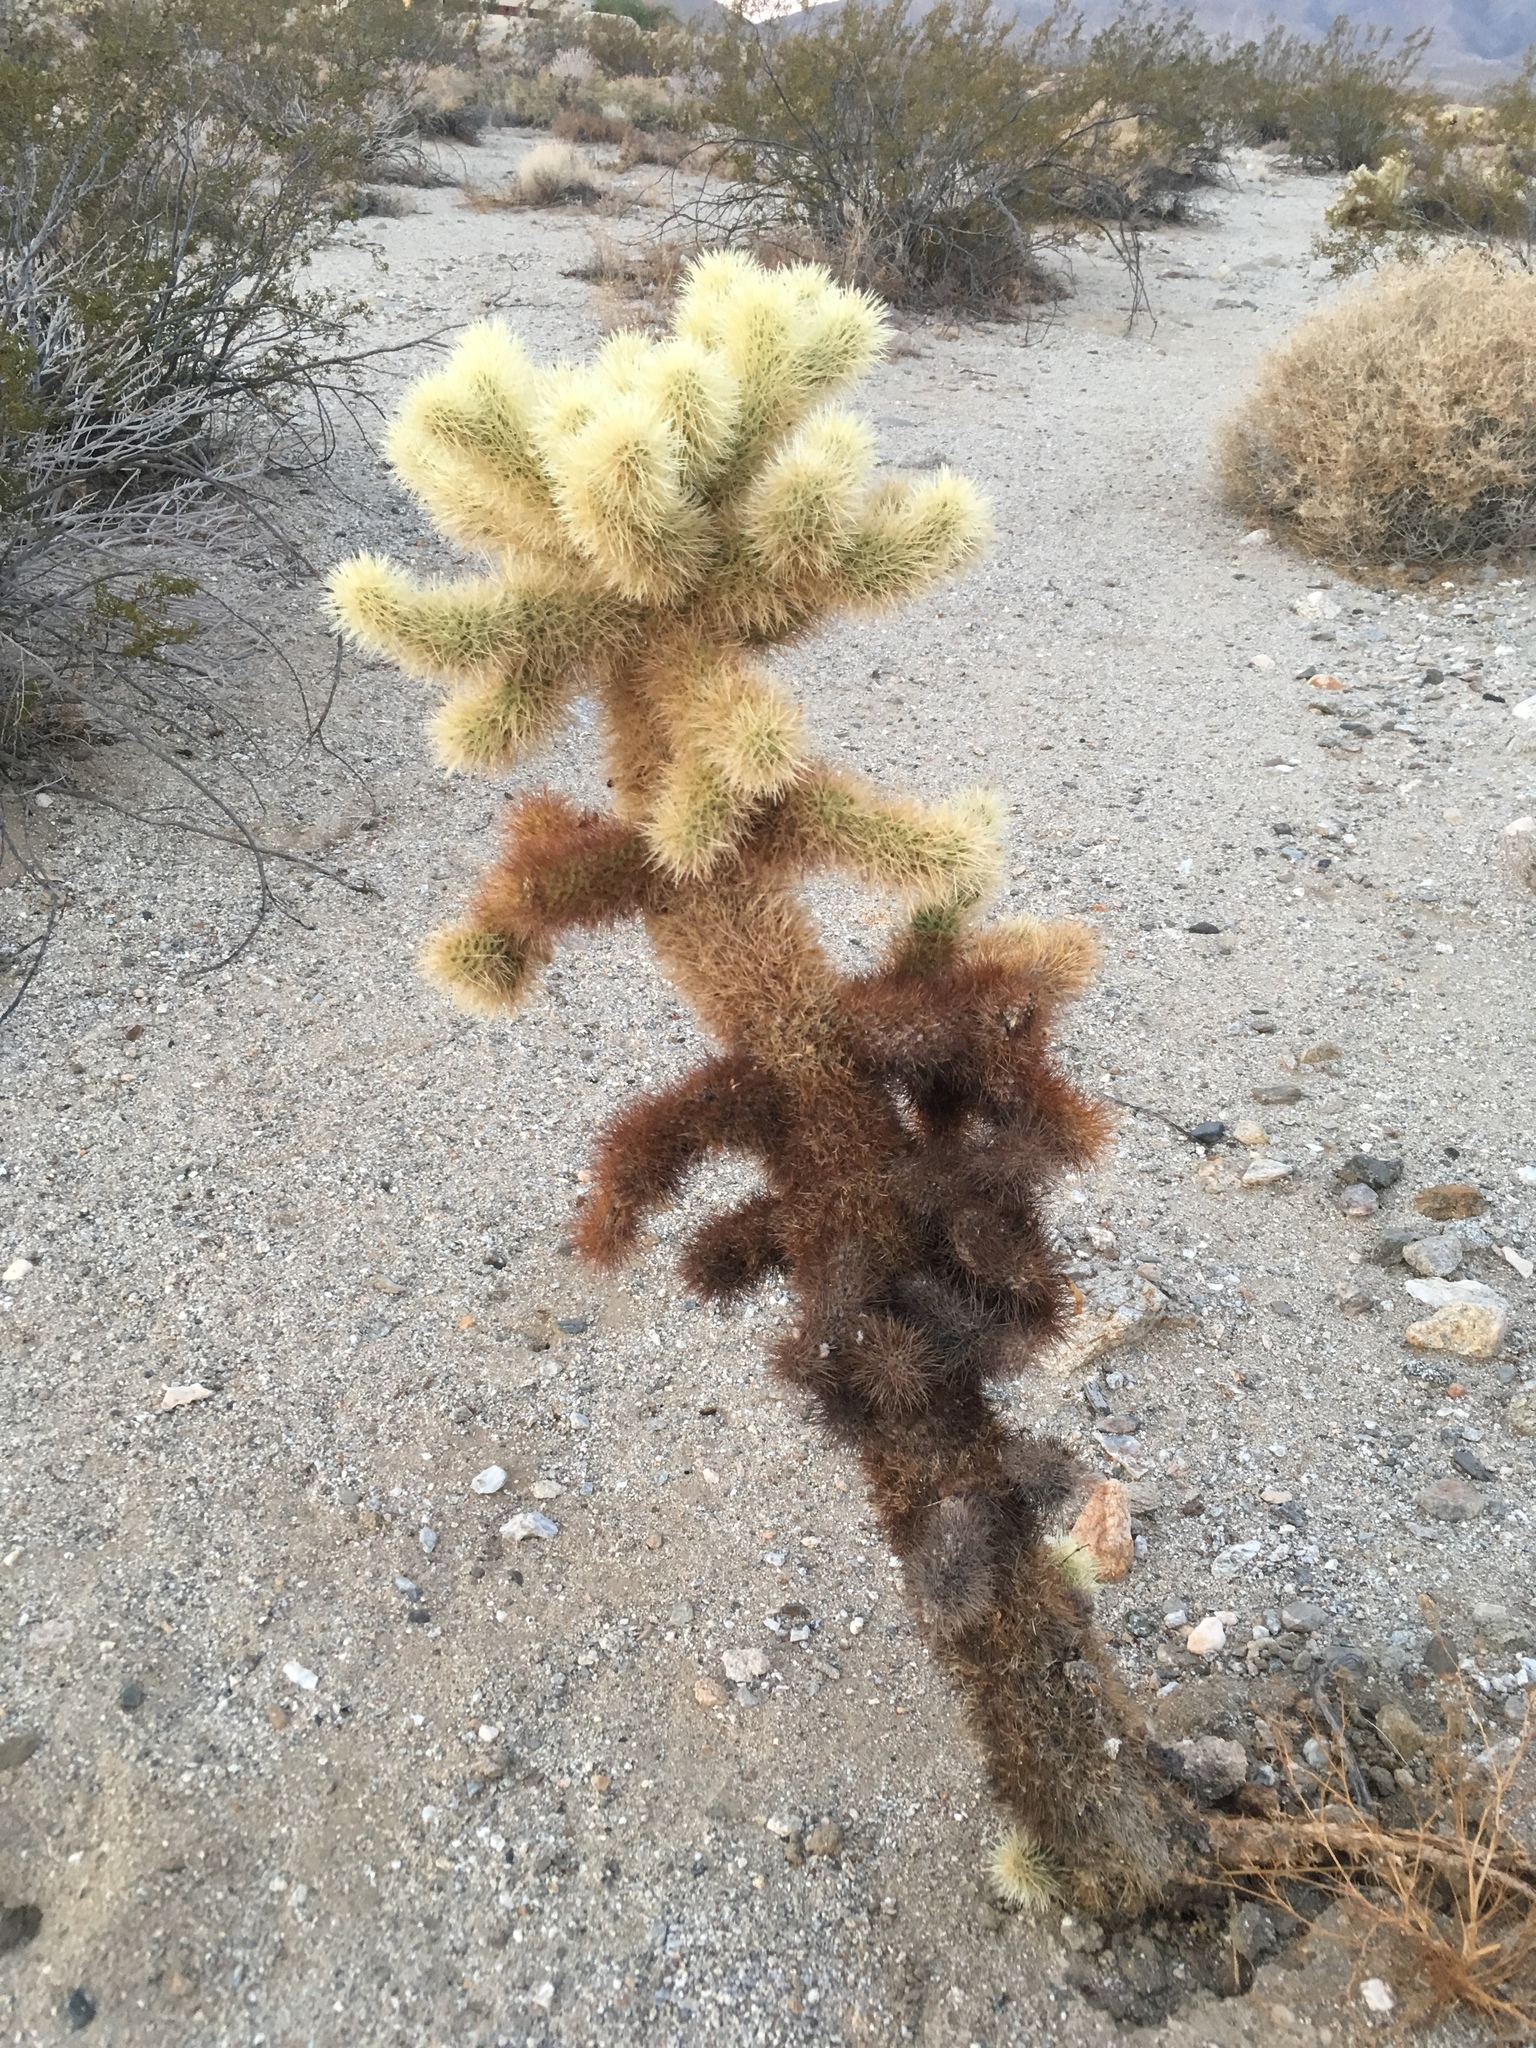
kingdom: Plantae
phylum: Tracheophyta
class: Magnoliopsida
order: Caryophyllales
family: Cactaceae
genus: Cylindropuntia
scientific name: Cylindropuntia fosbergii
